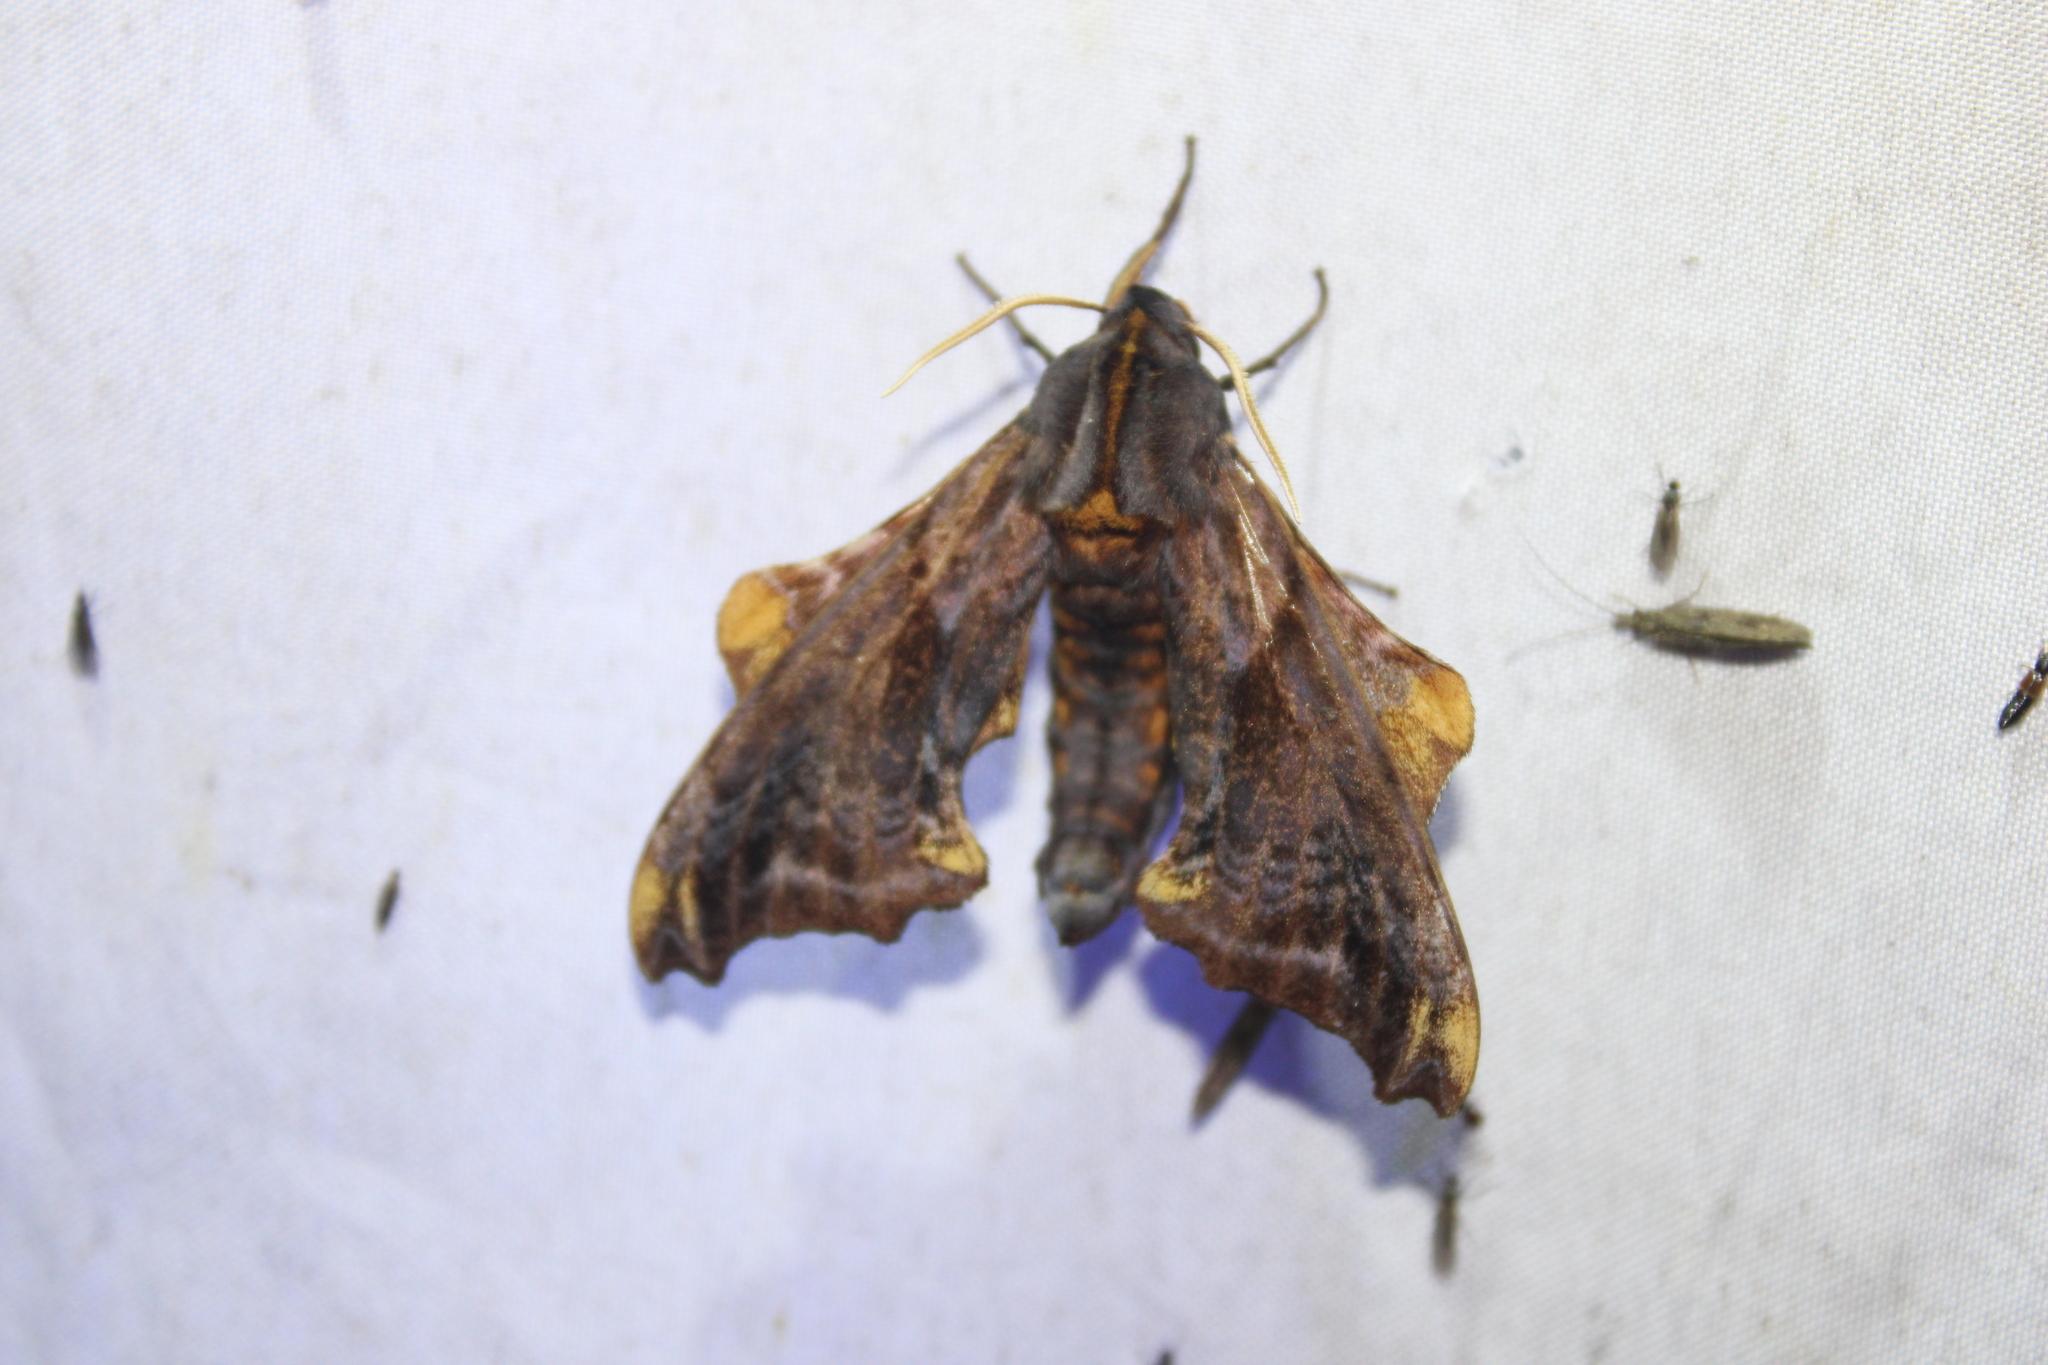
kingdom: Animalia
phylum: Arthropoda
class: Insecta
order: Lepidoptera
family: Sphingidae
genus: Paonias
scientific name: Paonias myops
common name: Small-eyed sphinx
